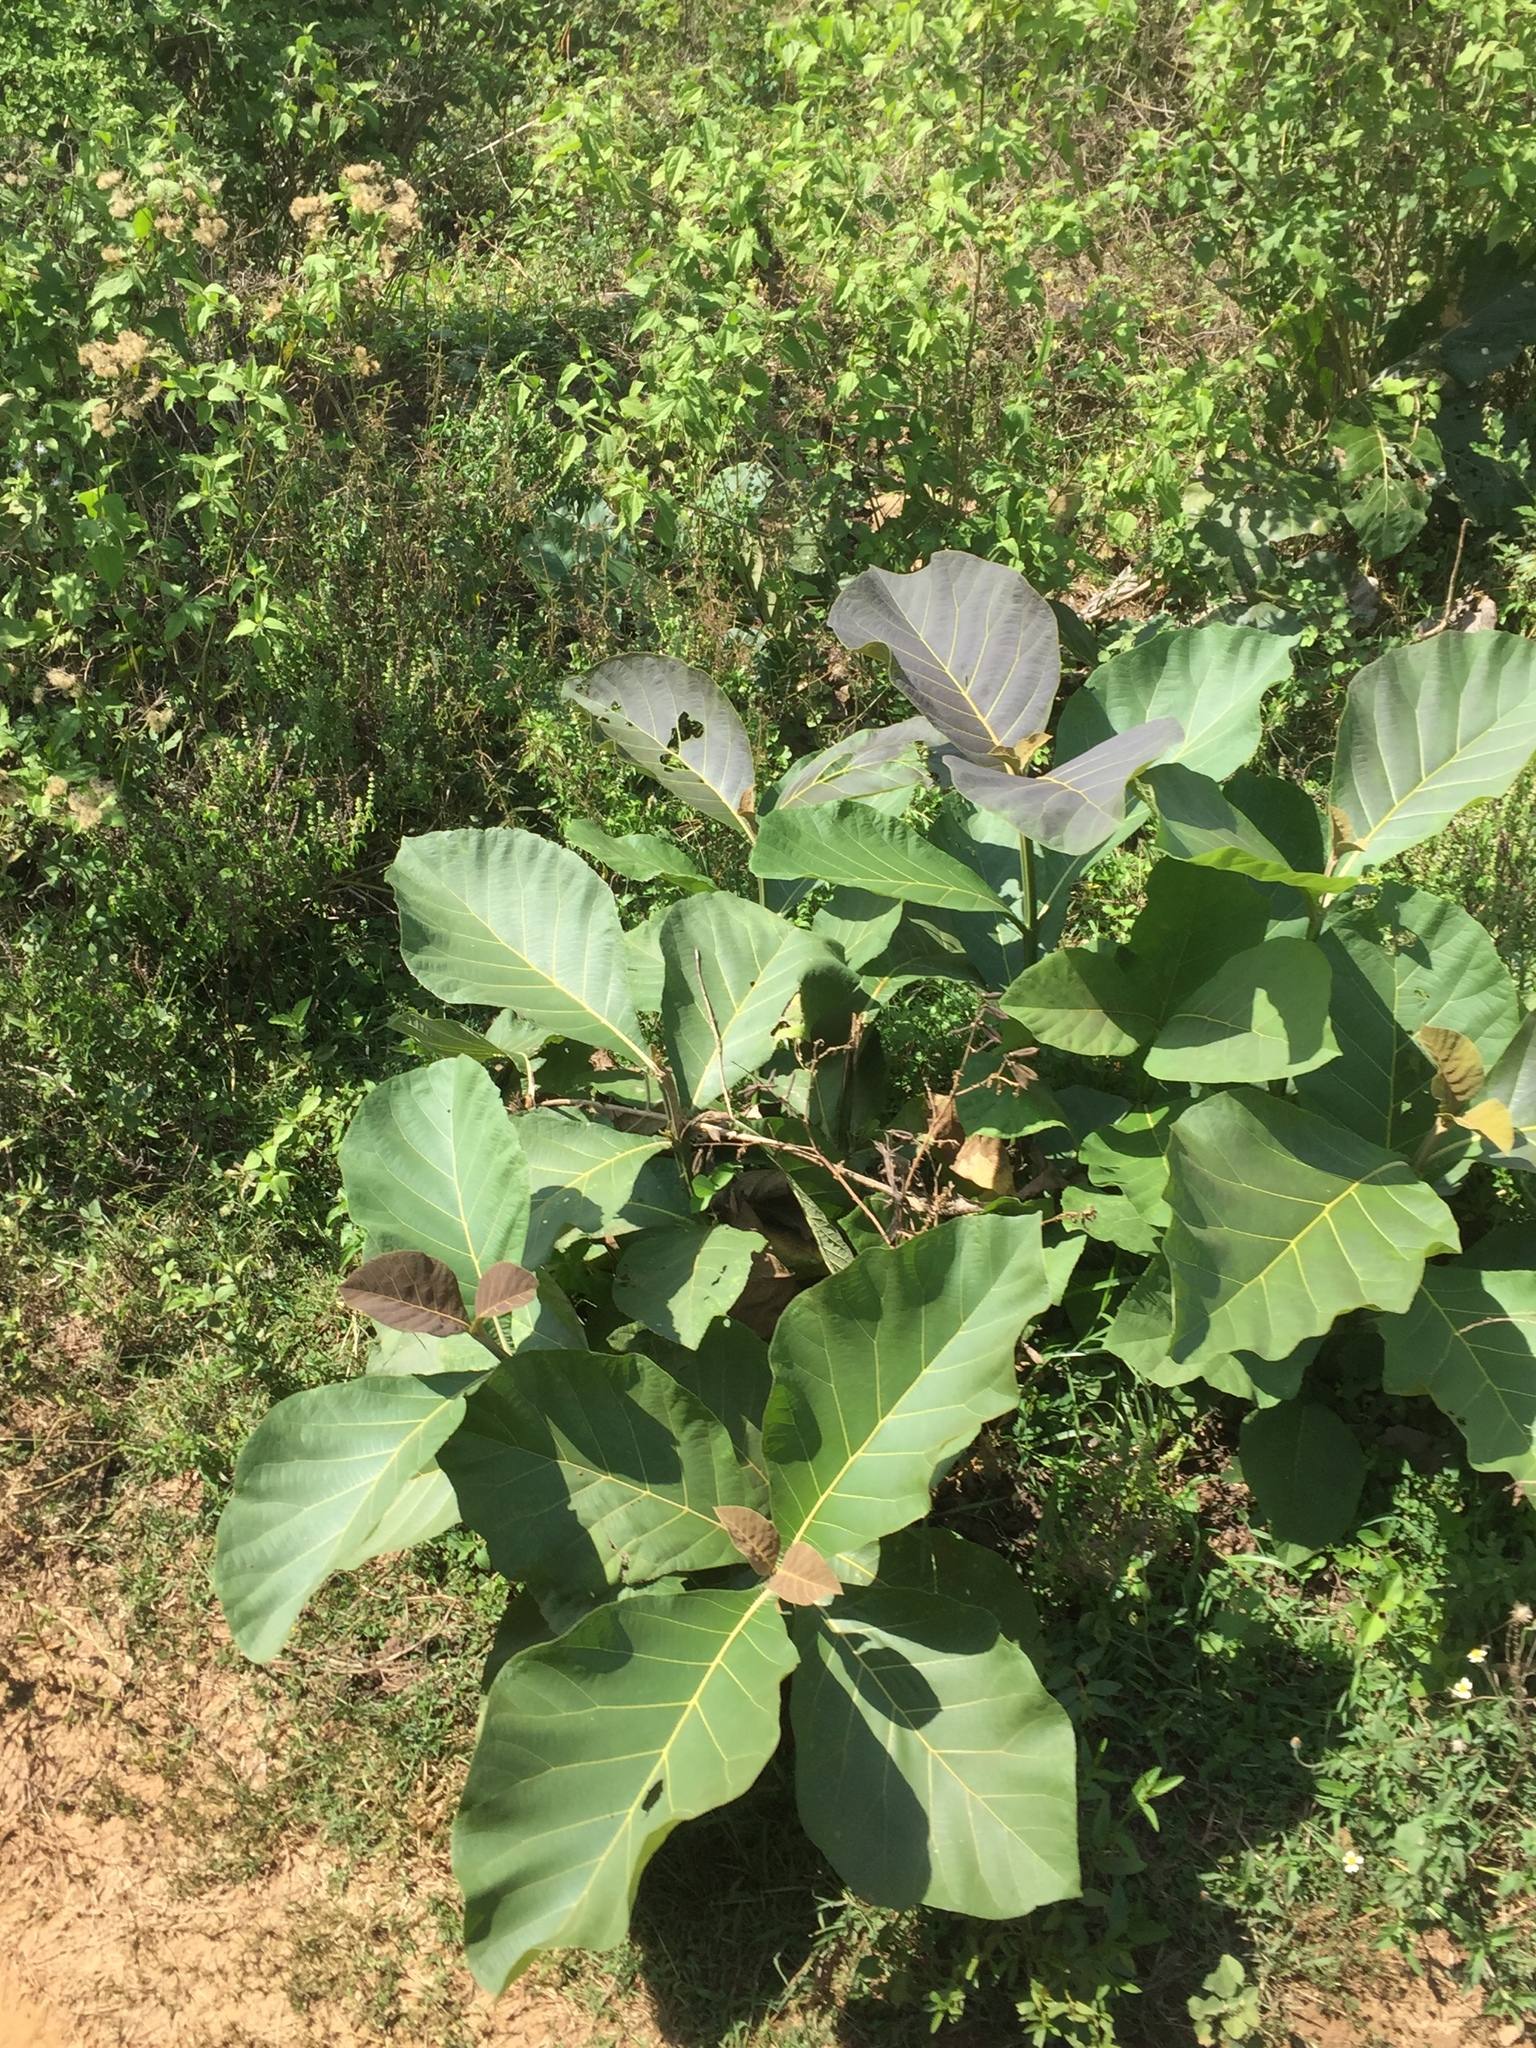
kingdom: Plantae
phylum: Tracheophyta
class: Magnoliopsida
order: Lamiales
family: Lamiaceae
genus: Tectona
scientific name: Tectona grandis
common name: Teak
